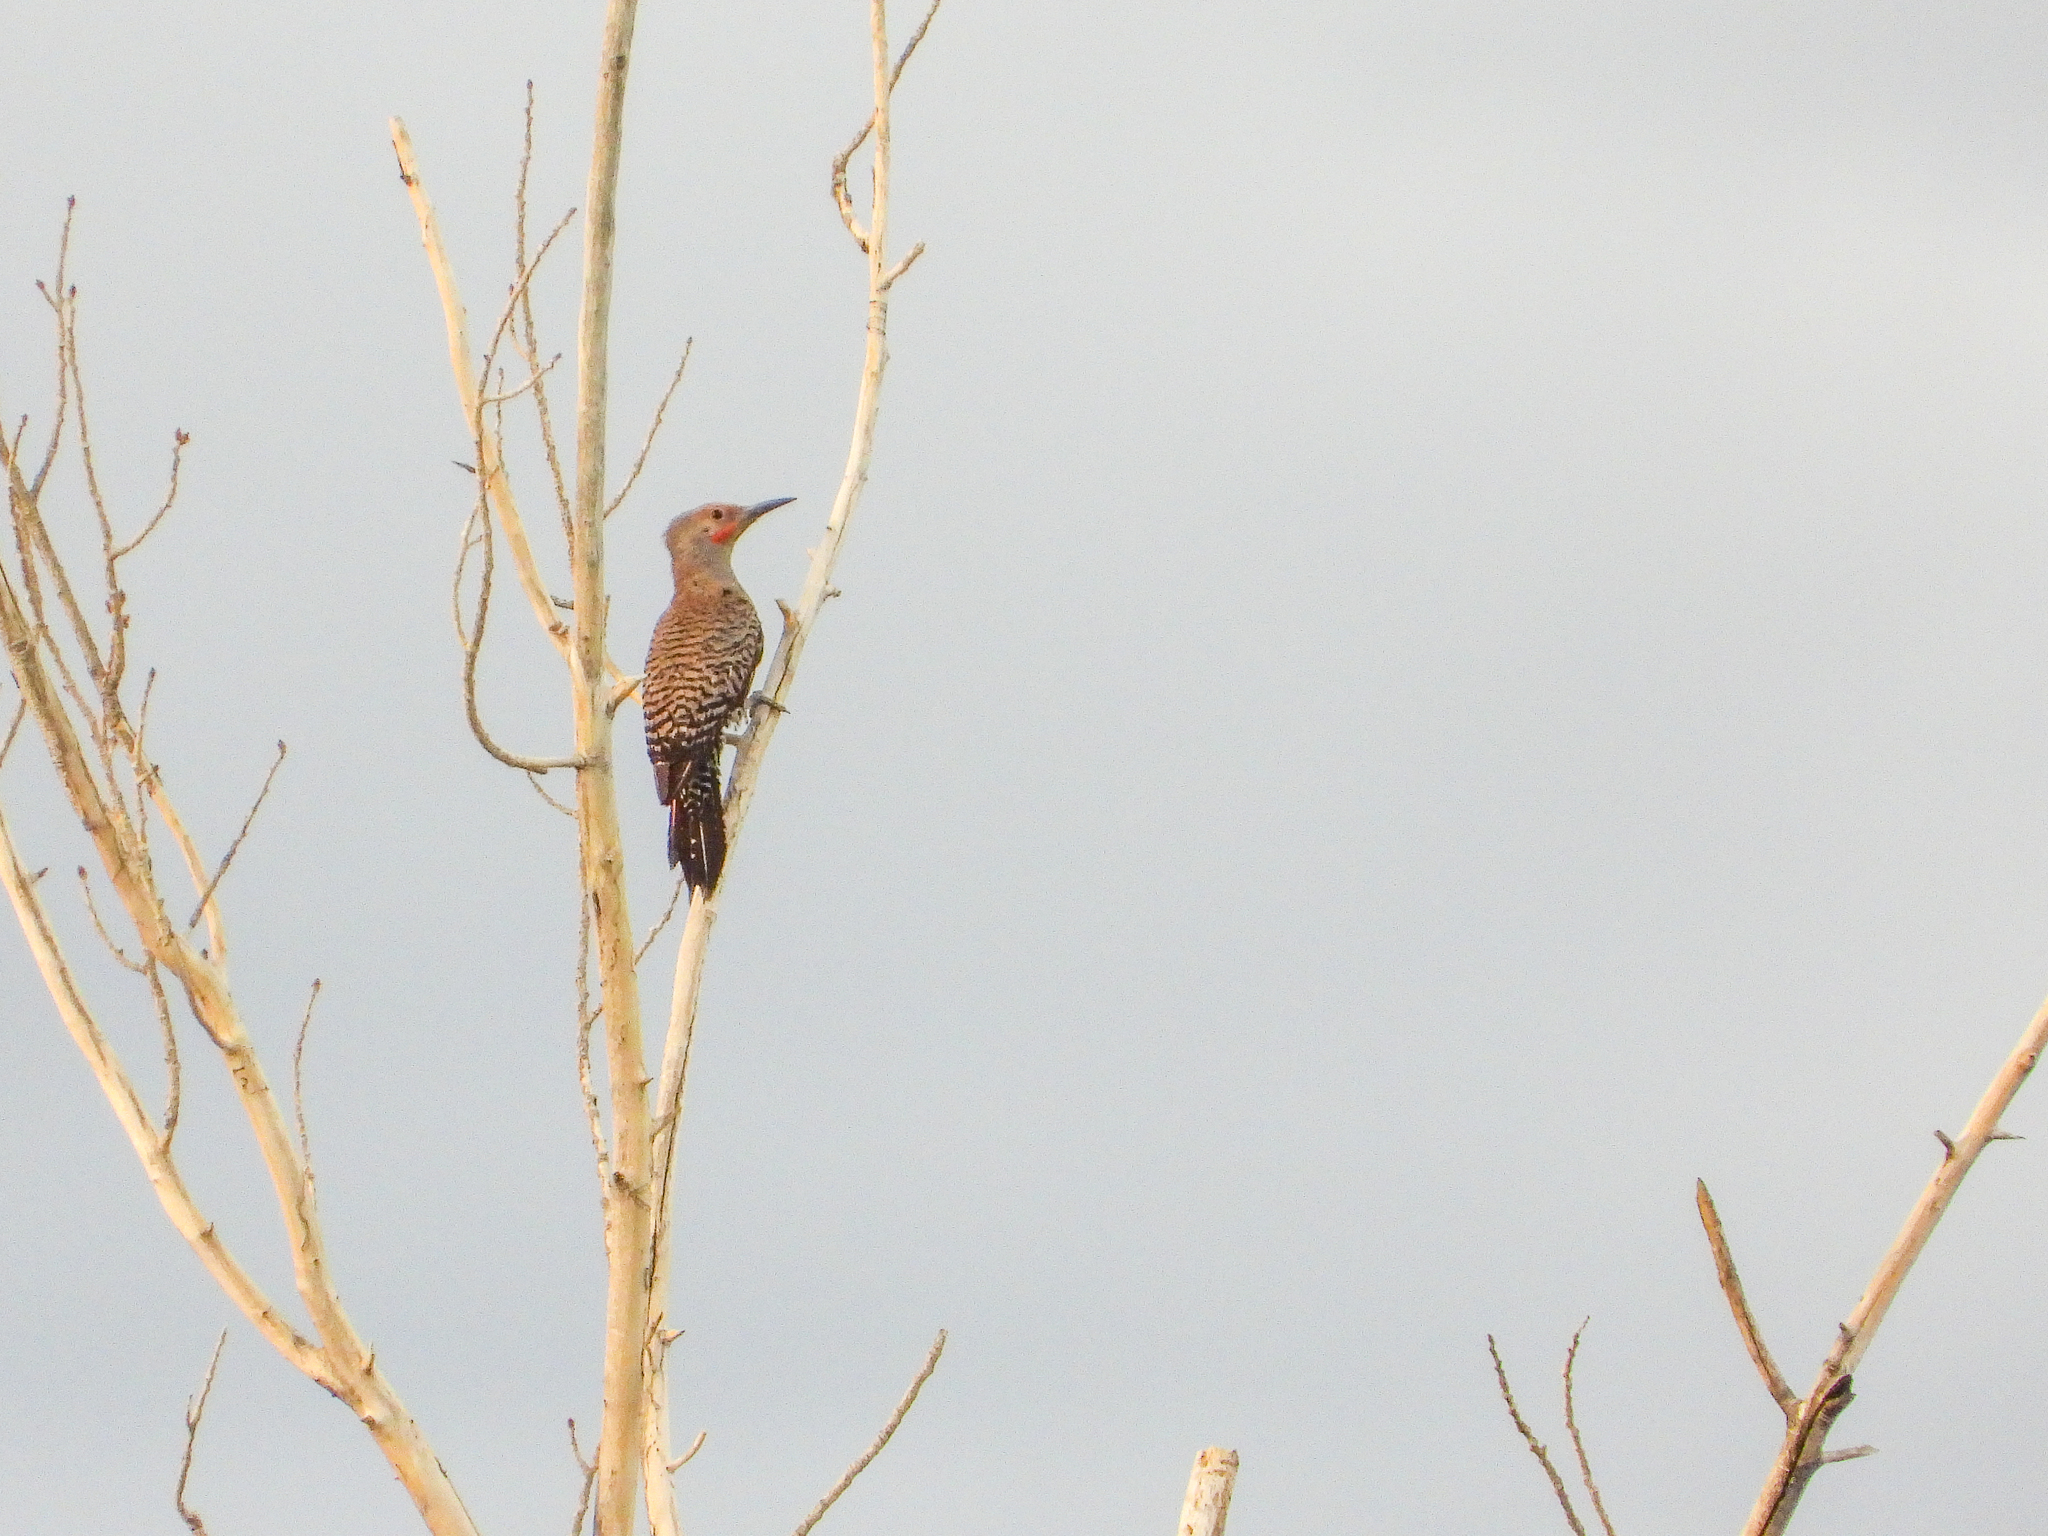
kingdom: Animalia
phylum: Chordata
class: Aves
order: Piciformes
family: Picidae
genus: Colaptes
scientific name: Colaptes auratus
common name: Northern flicker
